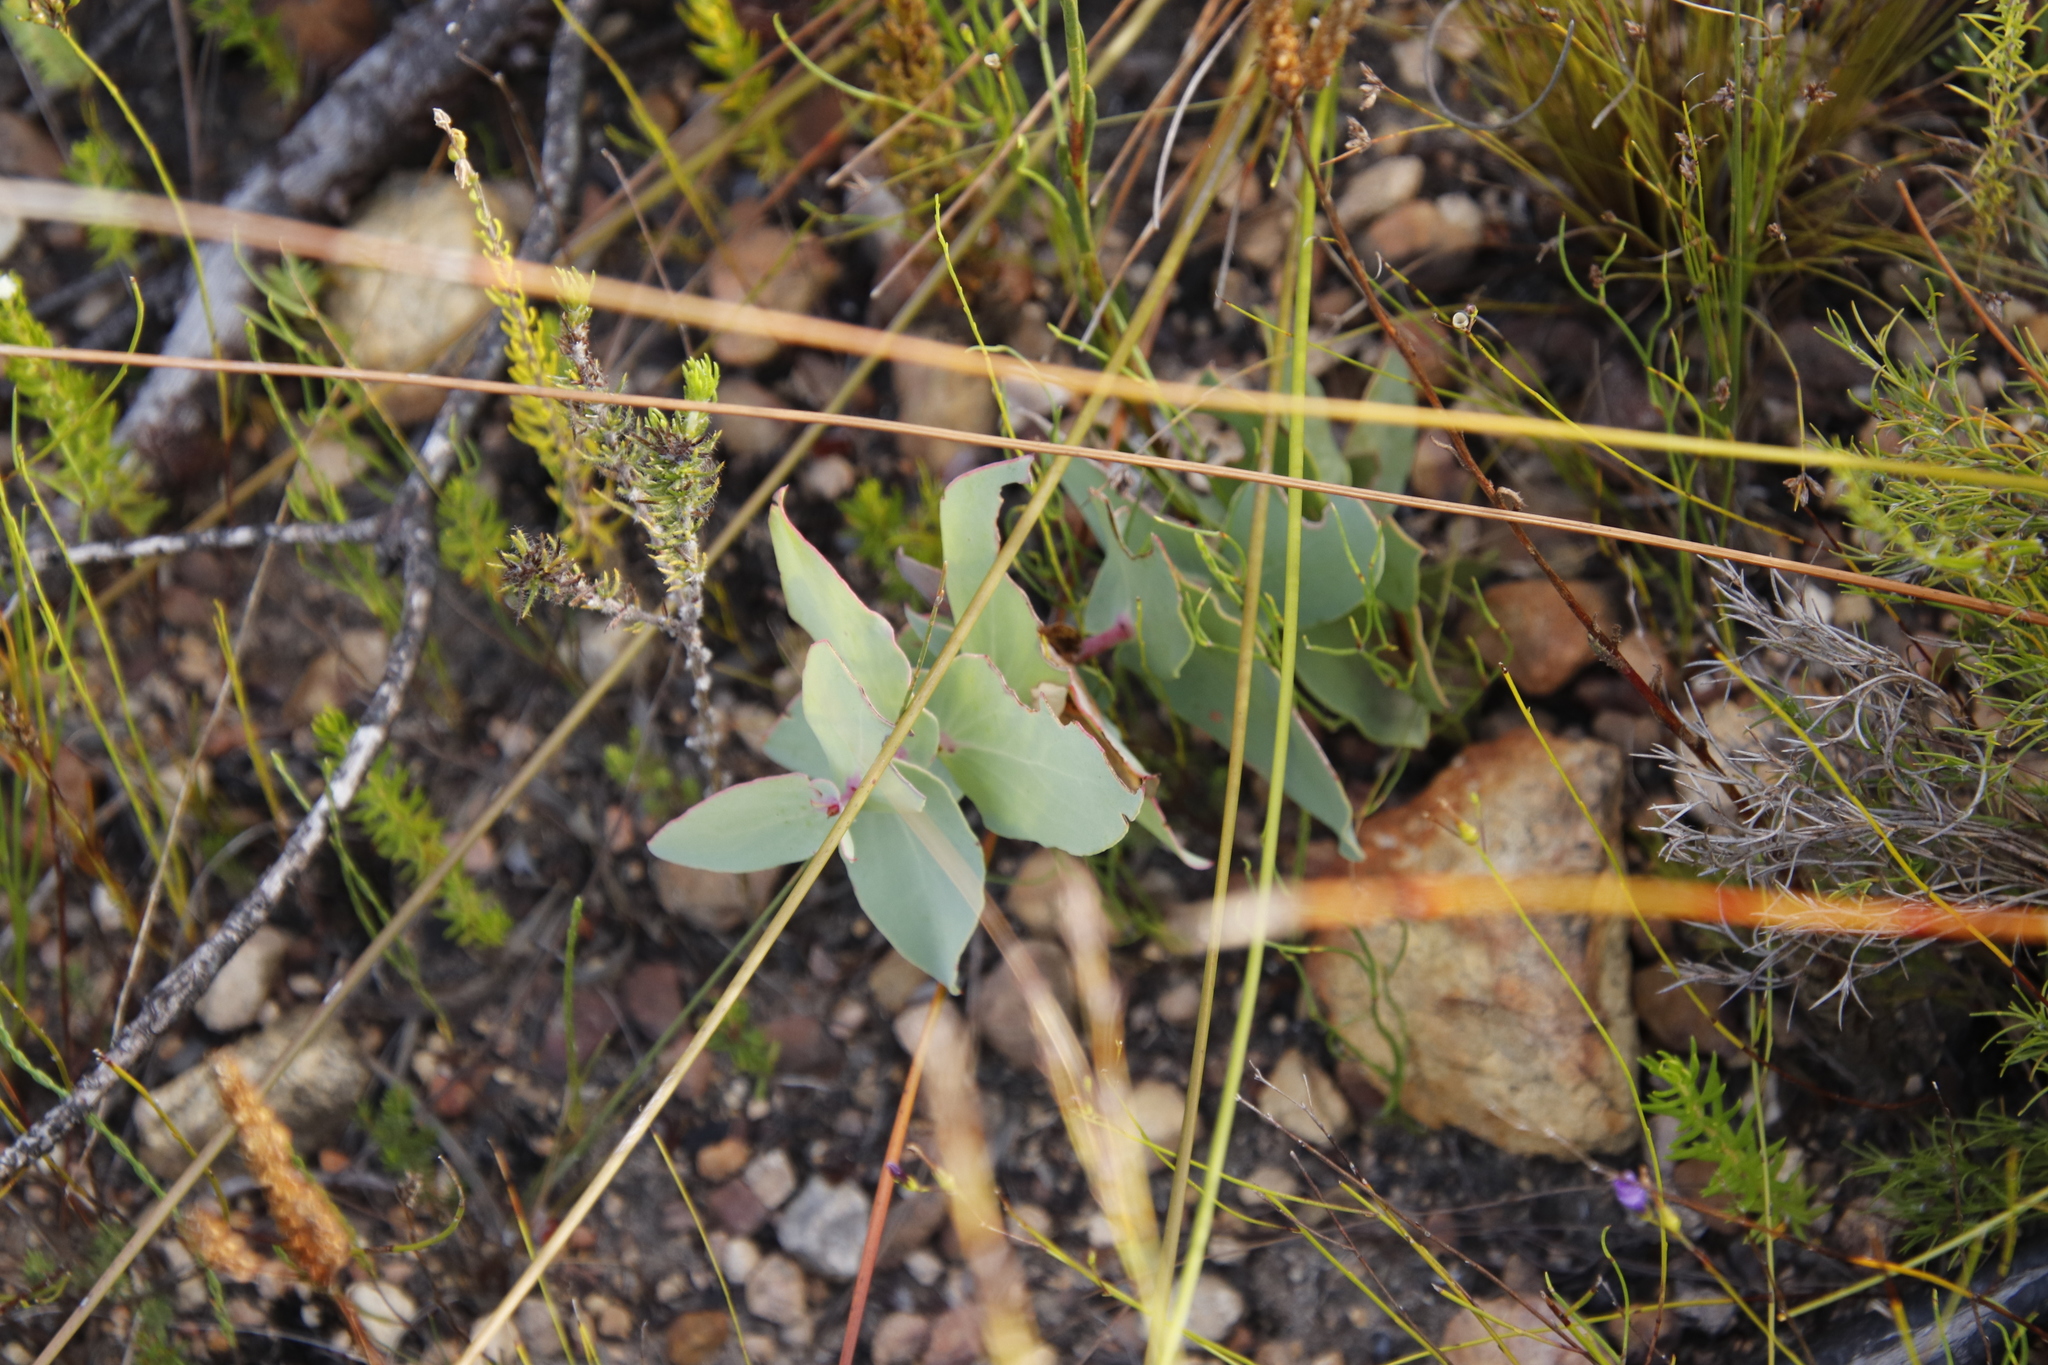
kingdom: Plantae
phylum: Tracheophyta
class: Magnoliopsida
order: Proteales
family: Proteaceae
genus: Protea
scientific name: Protea amplexicaulis
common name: Clasping-leaf sugarbush
